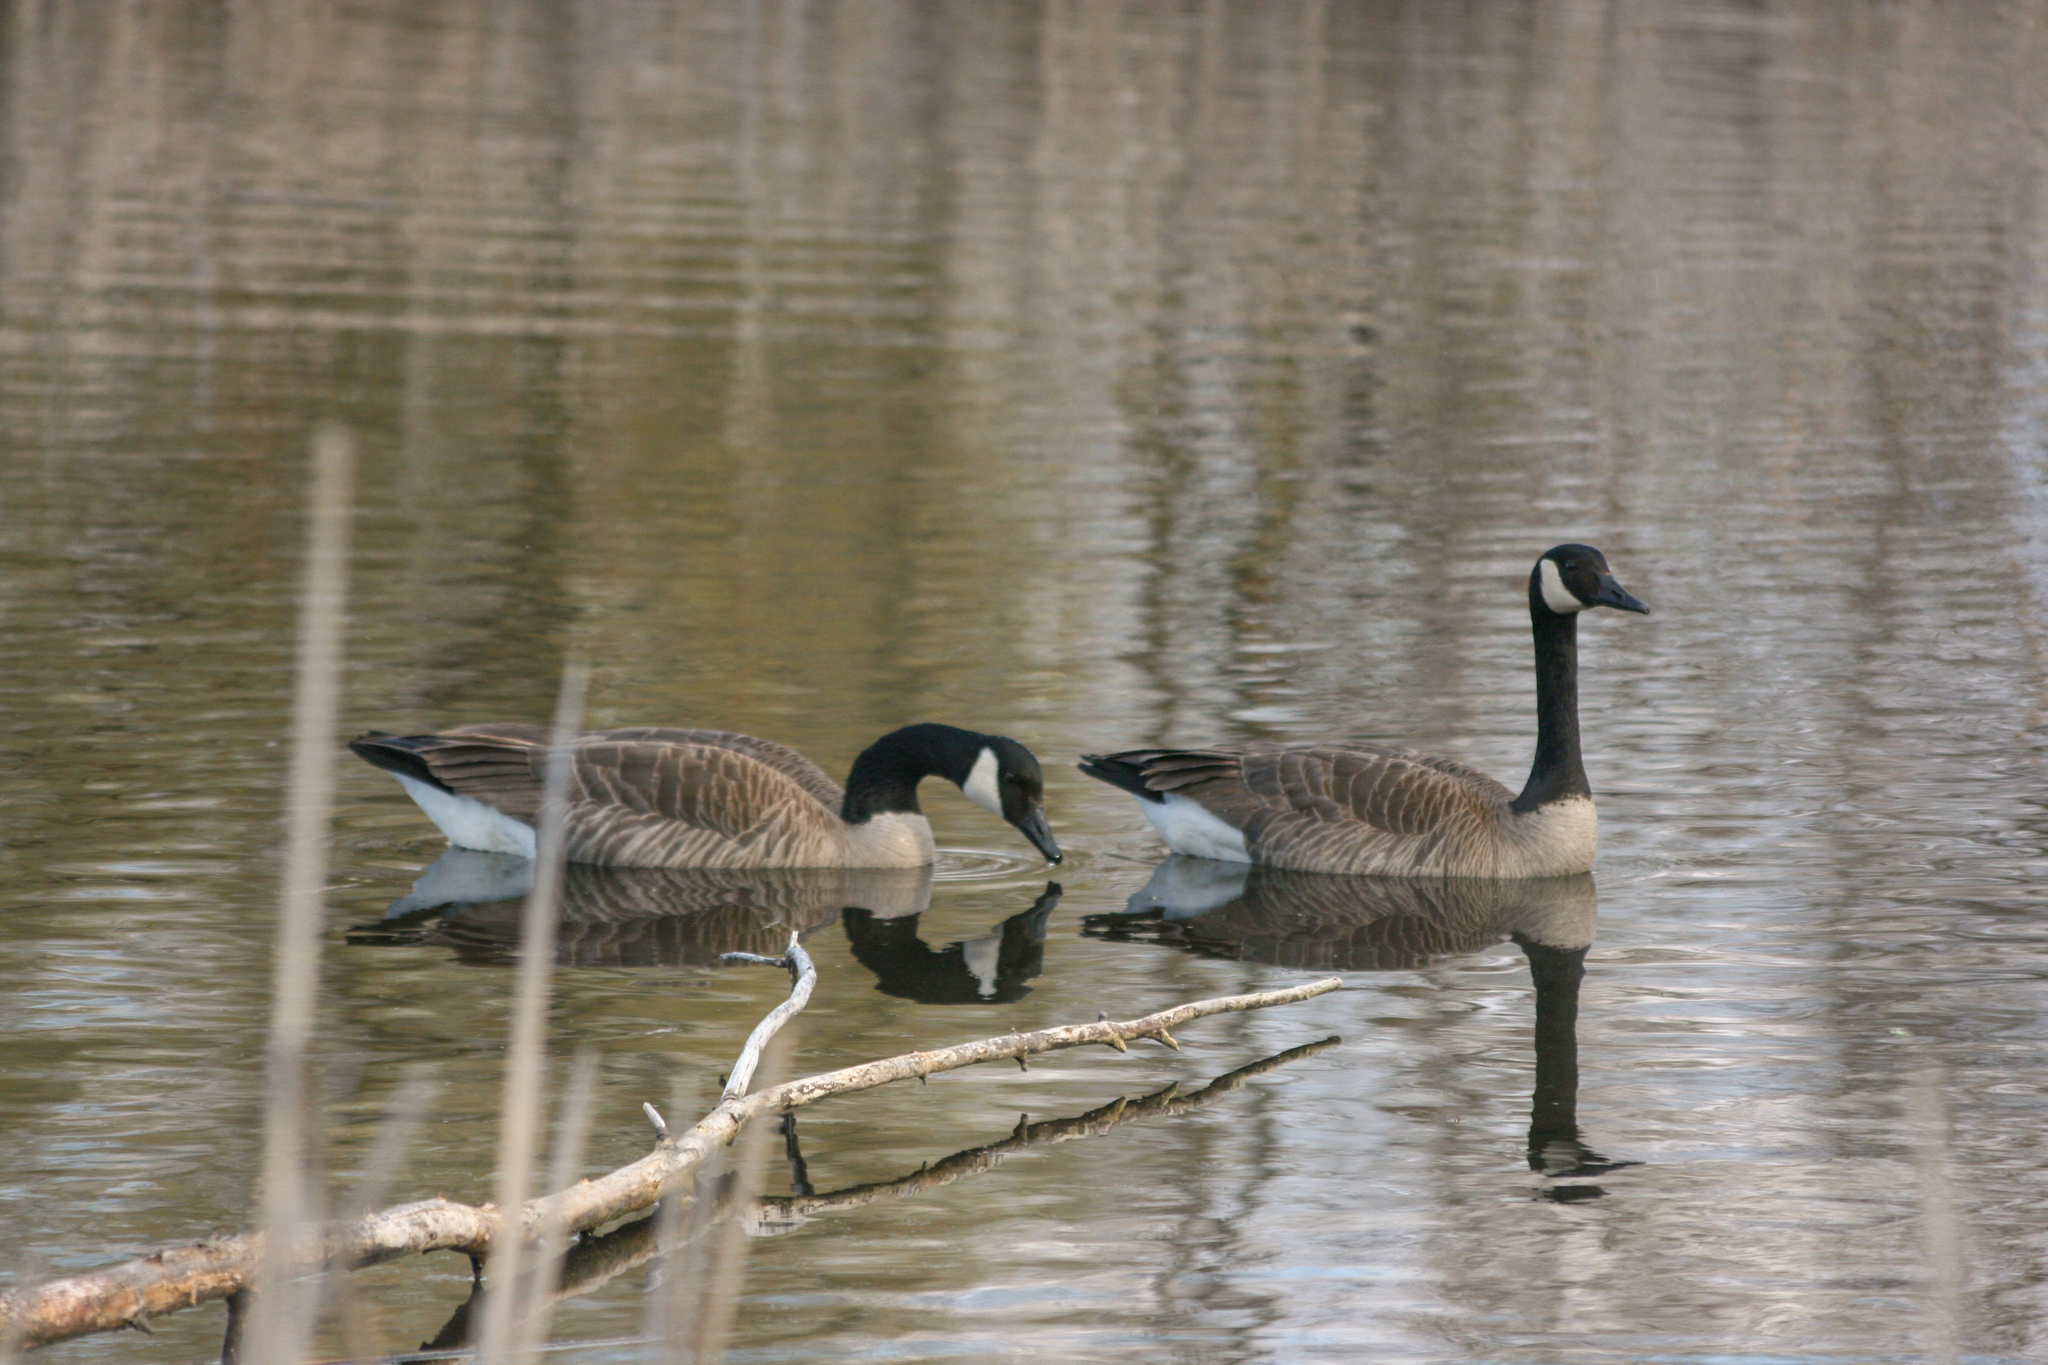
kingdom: Animalia
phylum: Chordata
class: Aves
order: Anseriformes
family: Anatidae
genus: Branta
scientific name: Branta canadensis
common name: Canada goose
